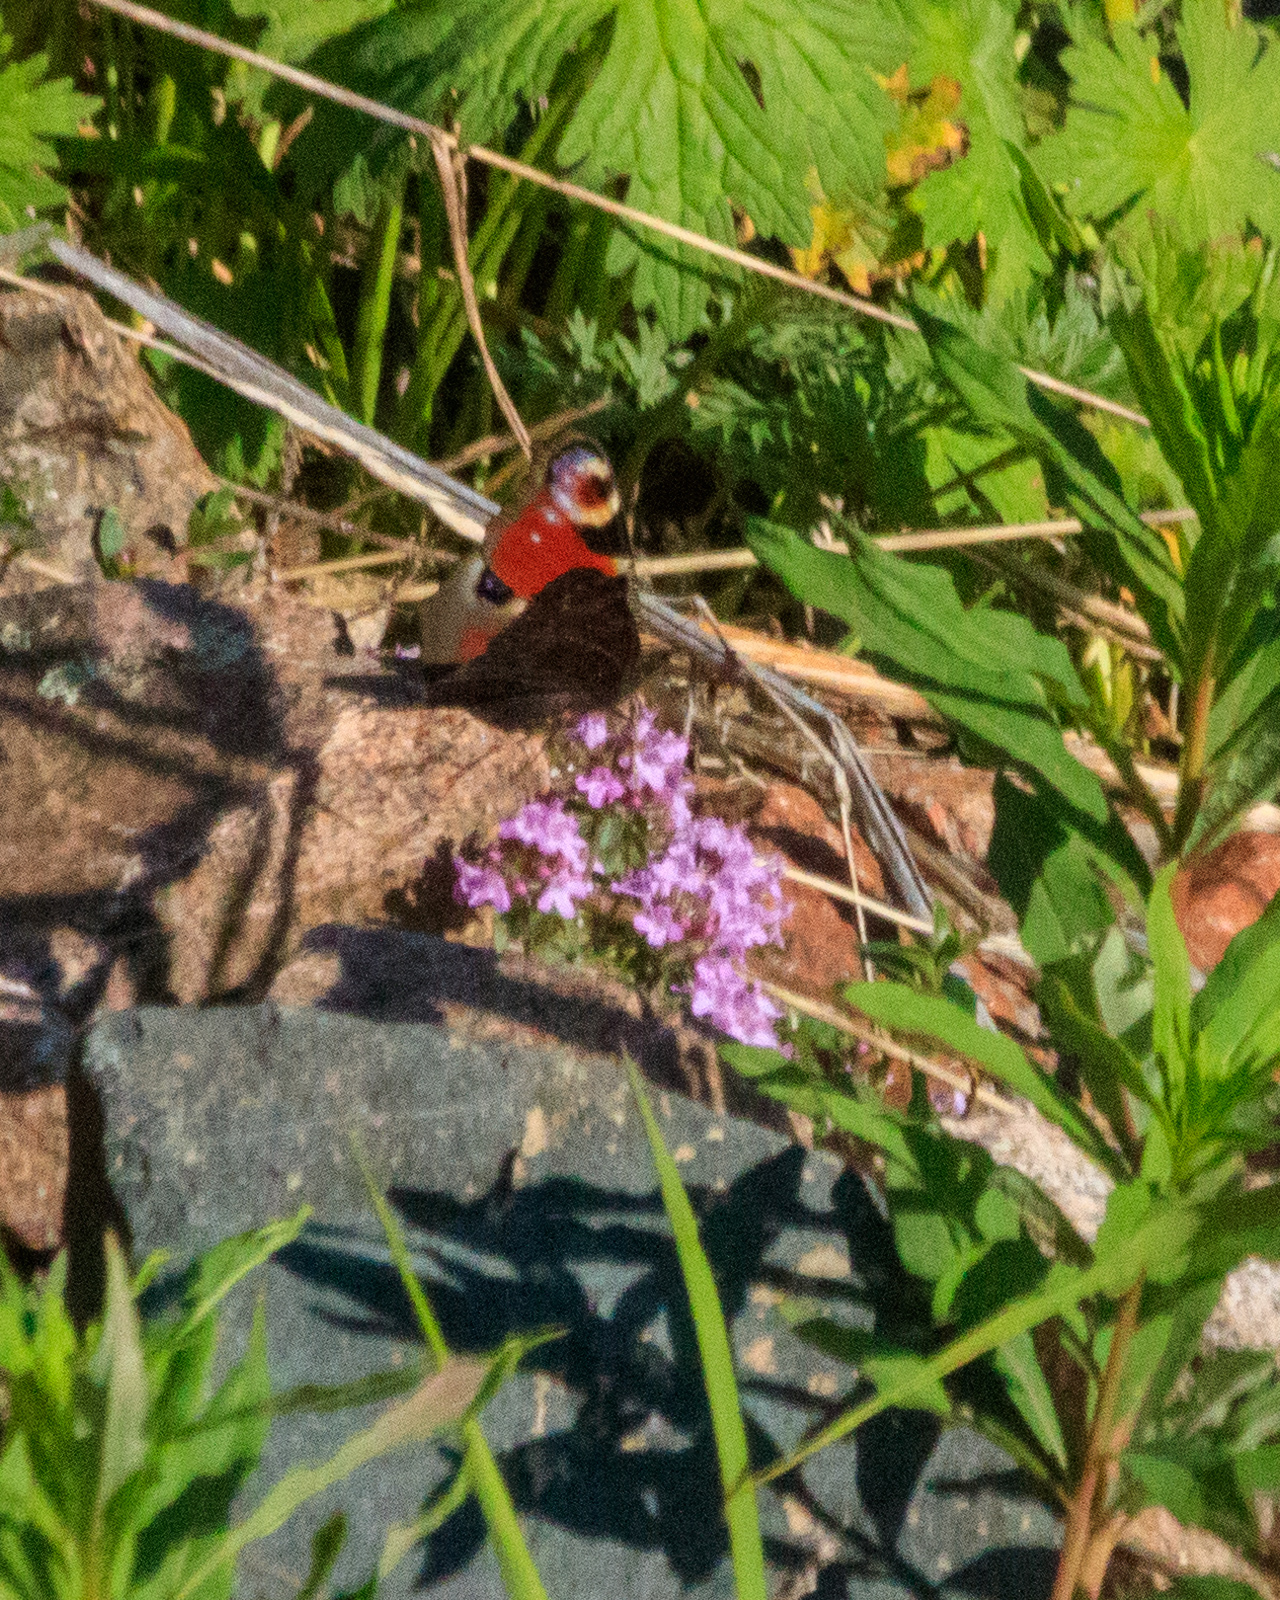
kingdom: Animalia
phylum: Arthropoda
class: Insecta
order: Lepidoptera
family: Nymphalidae
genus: Aglais
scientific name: Aglais io
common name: Peacock
